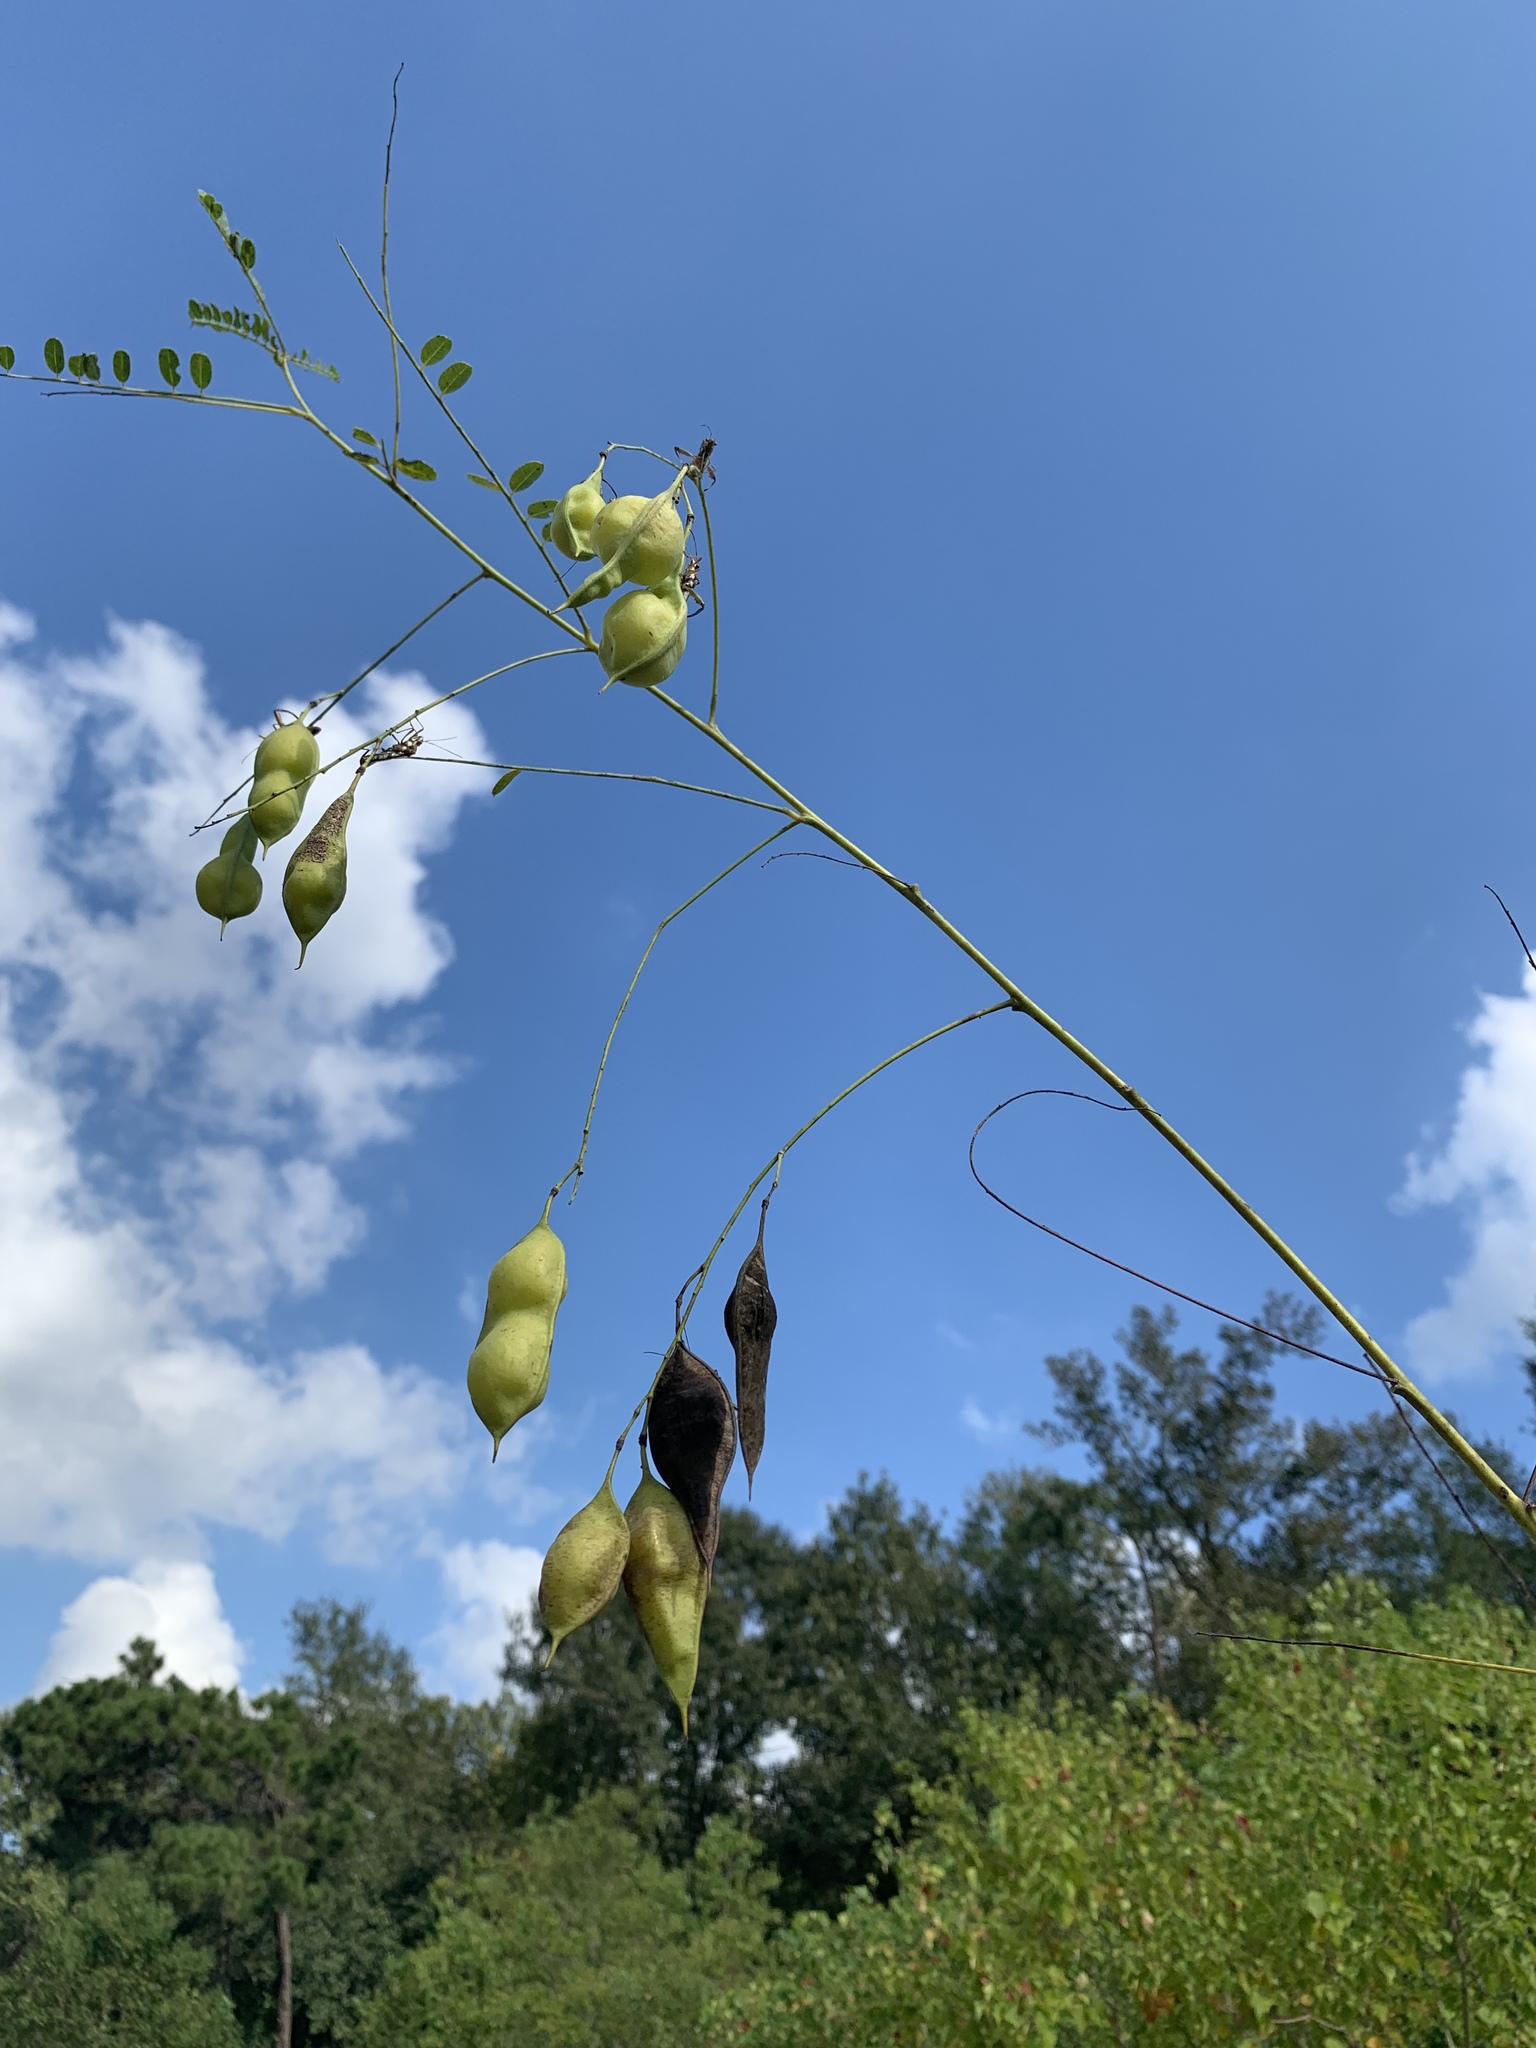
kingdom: Plantae
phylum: Tracheophyta
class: Magnoliopsida
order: Fabales
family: Fabaceae
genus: Sesbania
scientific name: Sesbania vesicaria
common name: Bagpod
